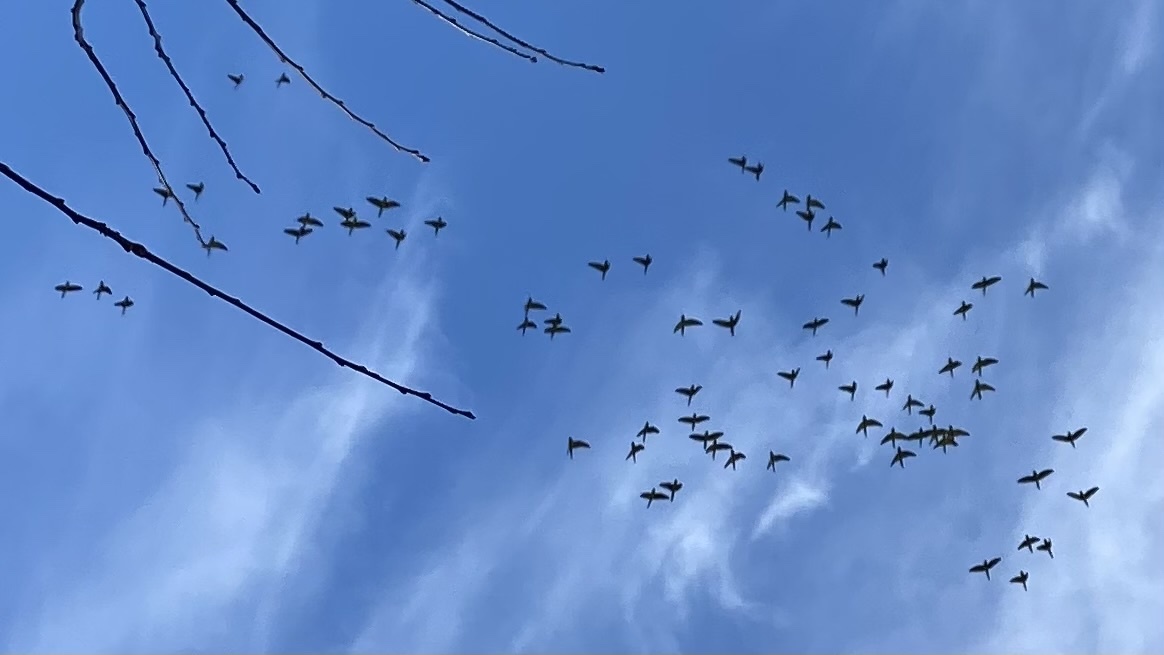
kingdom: Animalia
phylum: Chordata
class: Aves
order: Psittaciformes
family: Psittacidae
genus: Aratinga
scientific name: Aratinga mitrata
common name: Mitred parakeet
